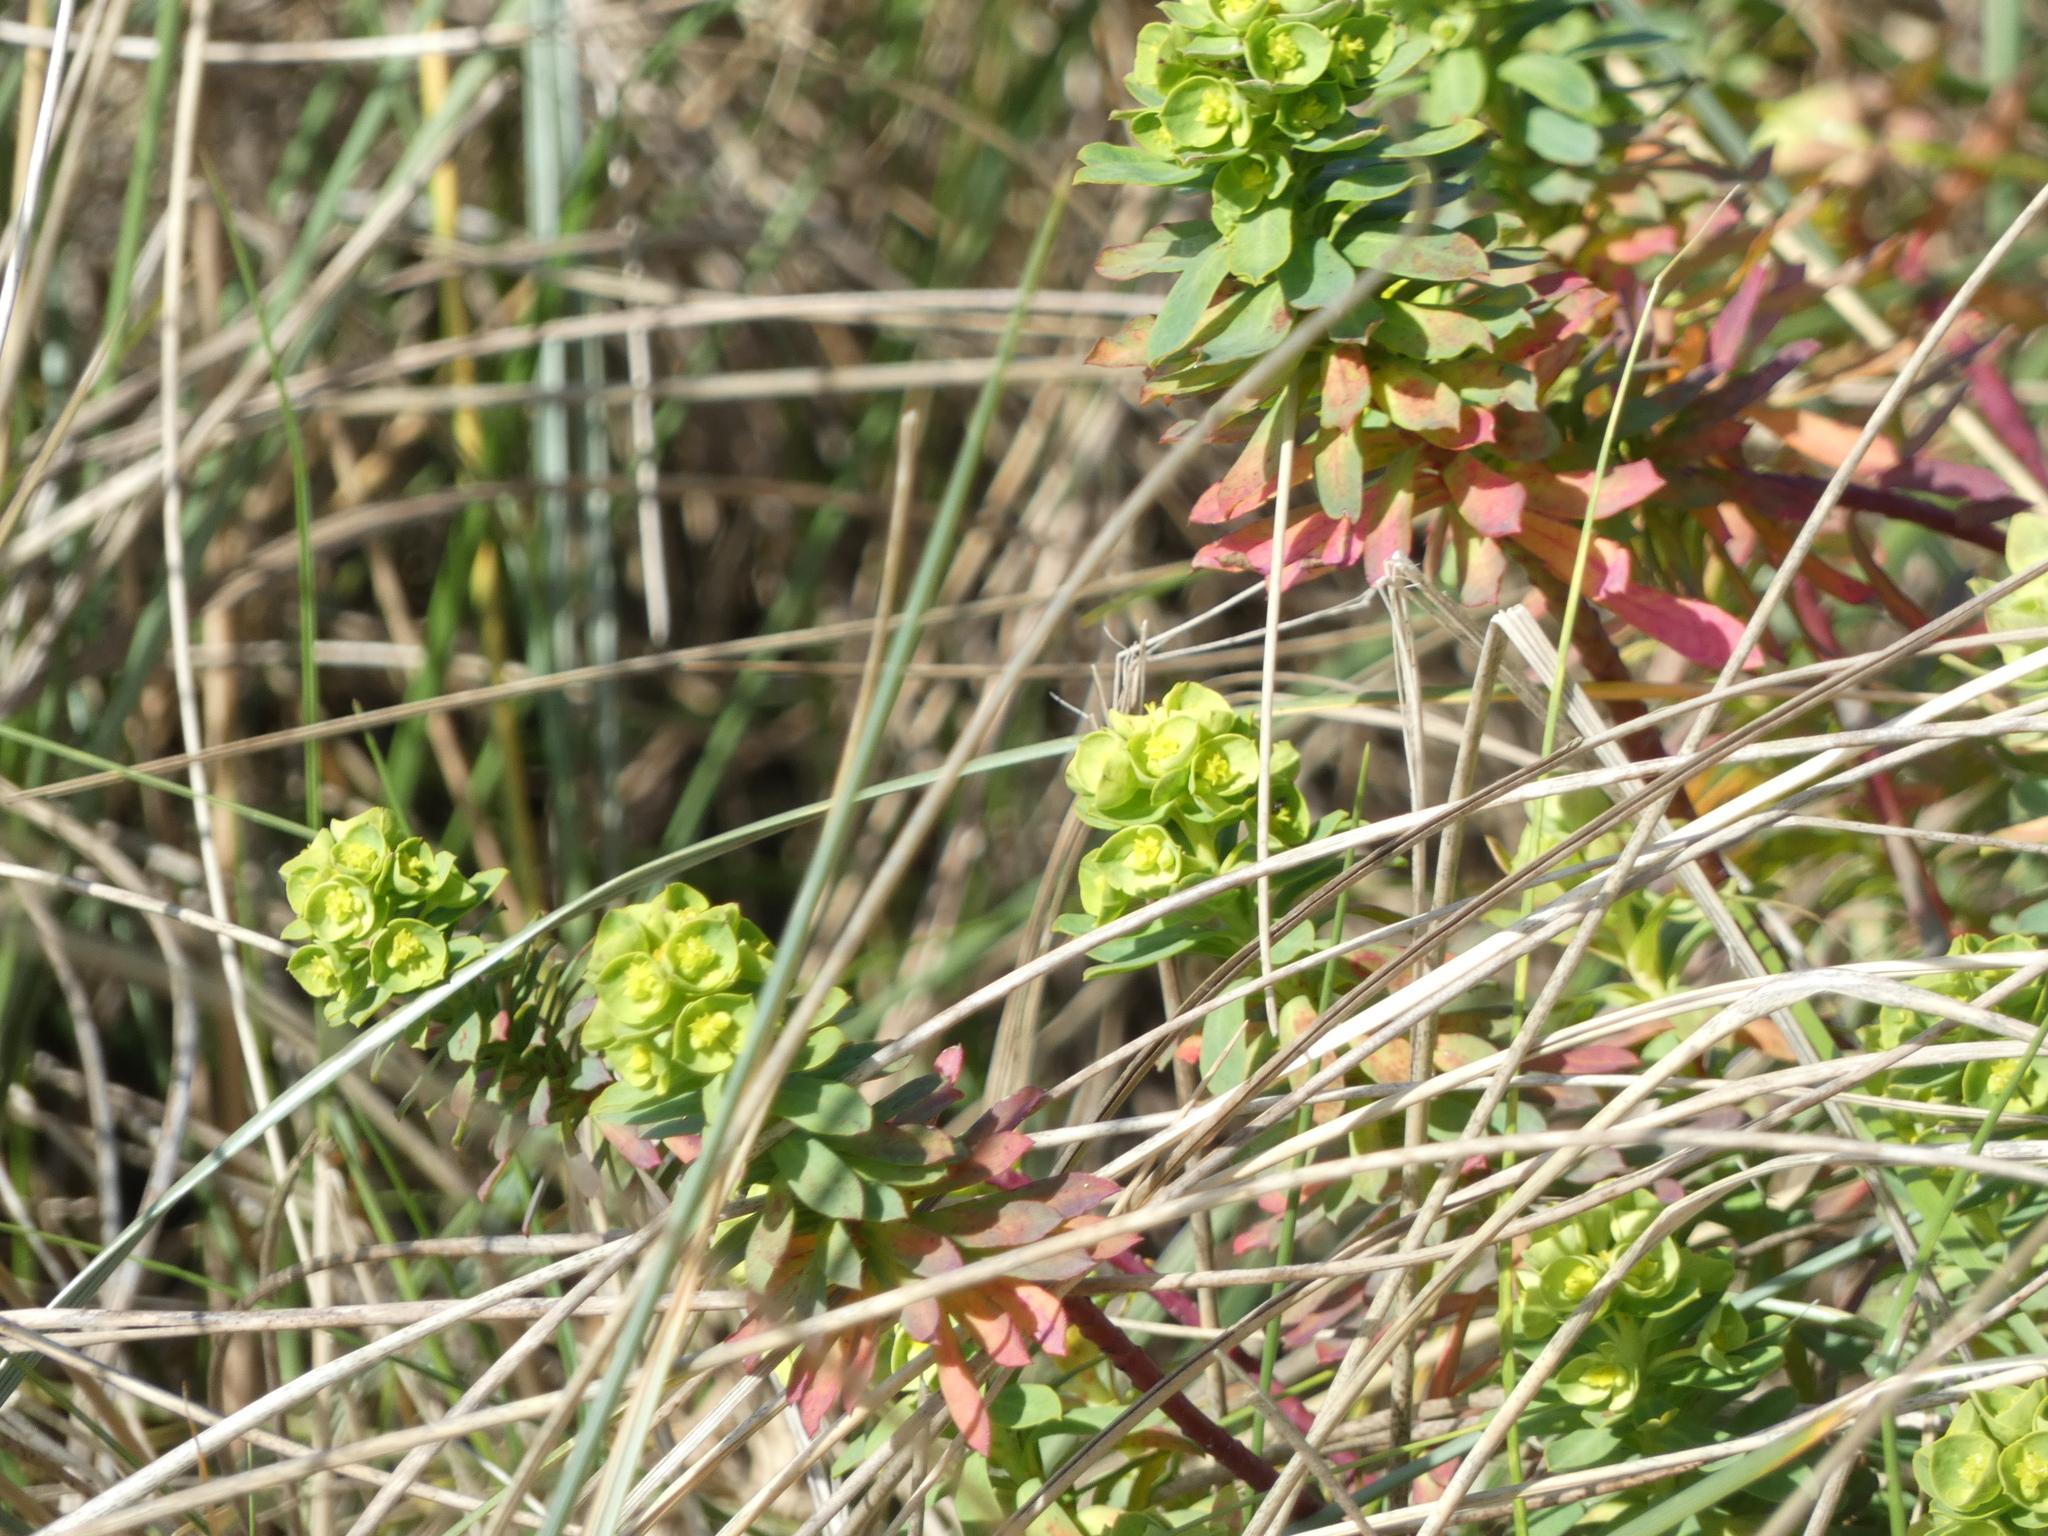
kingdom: Plantae
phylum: Tracheophyta
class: Magnoliopsida
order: Malpighiales
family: Euphorbiaceae
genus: Euphorbia
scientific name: Euphorbia portlandica
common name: Portland spurge
